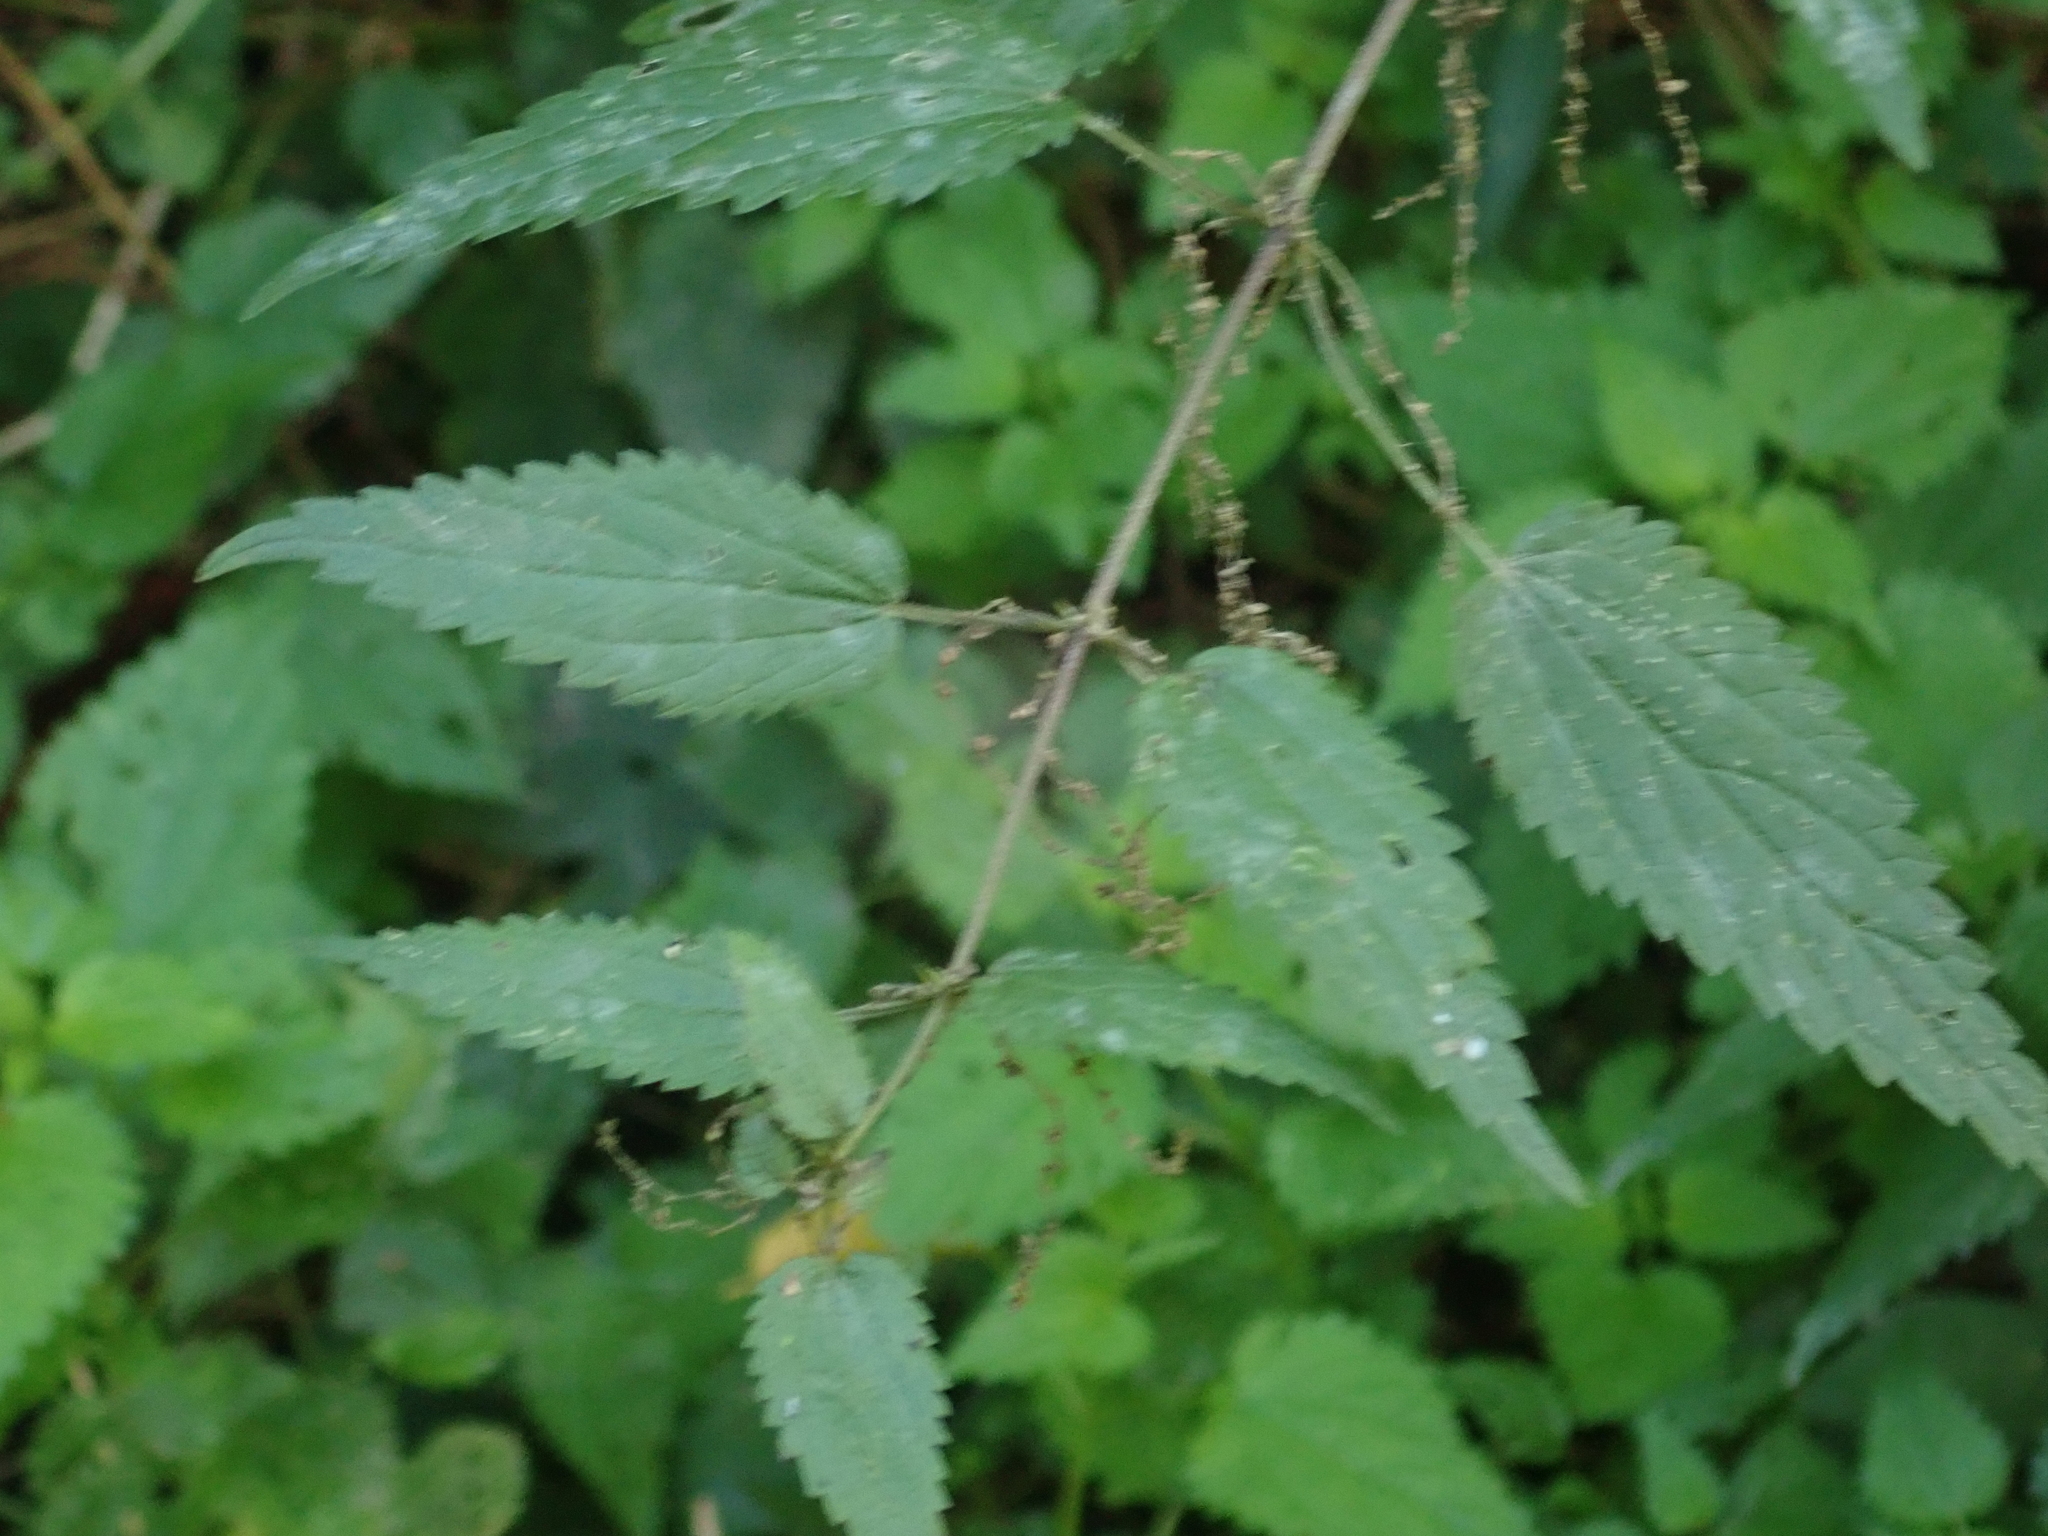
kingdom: Plantae
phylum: Tracheophyta
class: Magnoliopsida
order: Rosales
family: Urticaceae
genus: Urtica
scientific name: Urtica dioica
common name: Common nettle
